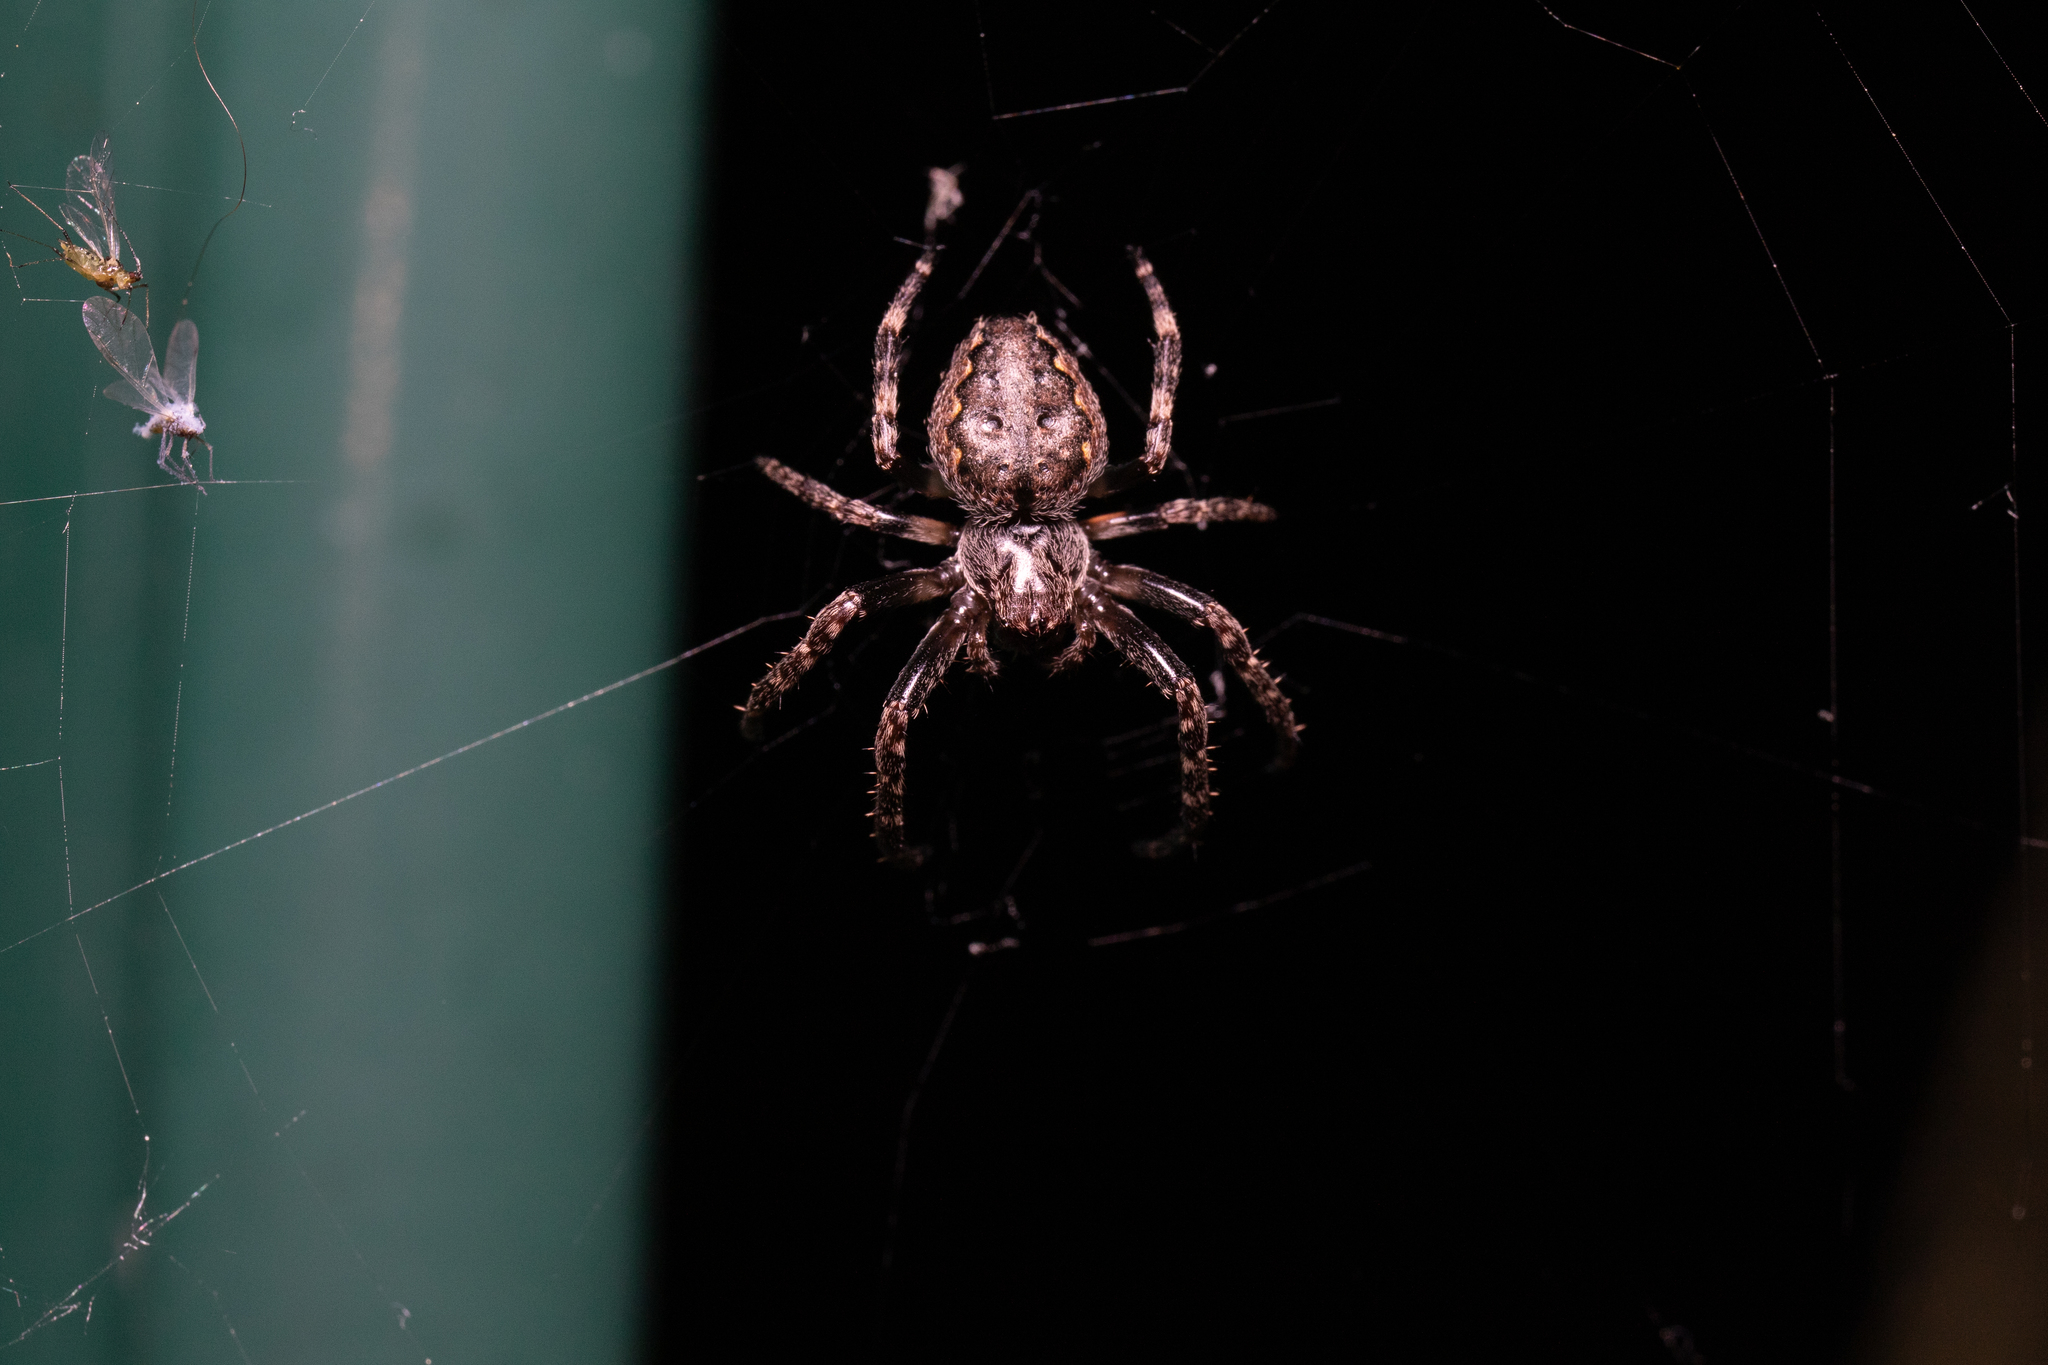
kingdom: Animalia
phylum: Arthropoda
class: Arachnida
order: Araneae
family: Araneidae
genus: Nuctenea
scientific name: Nuctenea umbratica
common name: Toad spider
